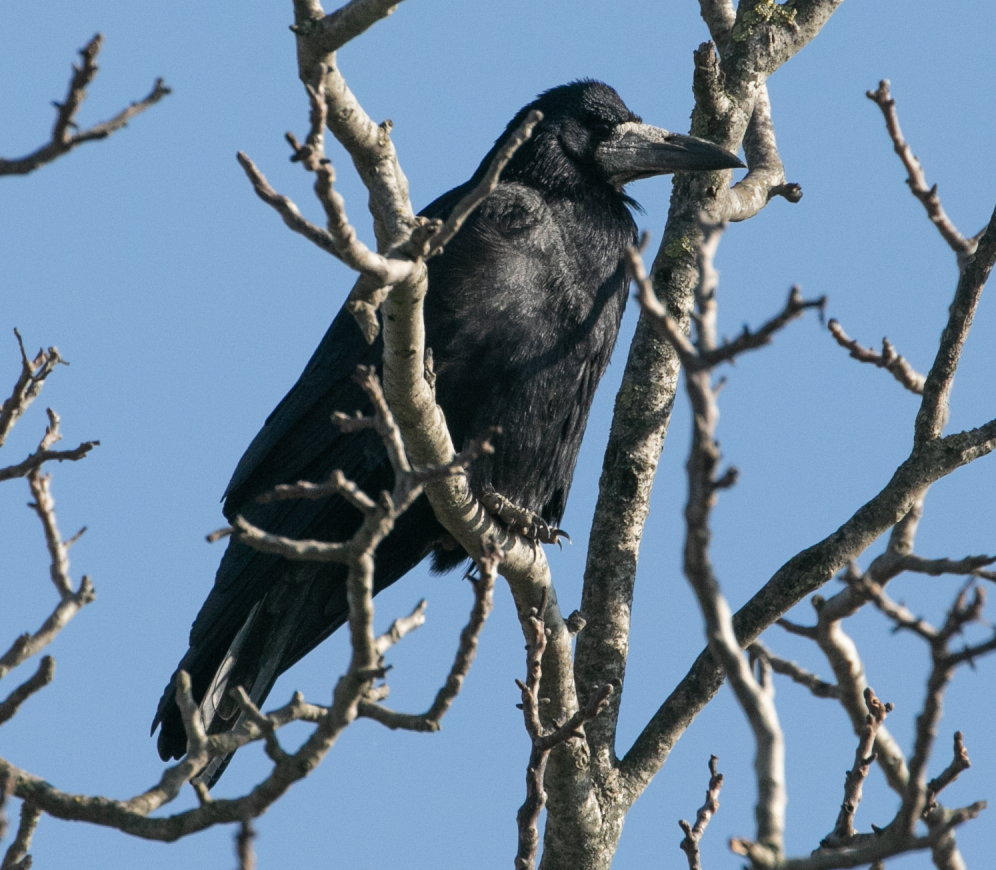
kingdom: Animalia
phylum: Chordata
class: Aves
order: Passeriformes
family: Corvidae
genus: Corvus
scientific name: Corvus frugilegus
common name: Rook
